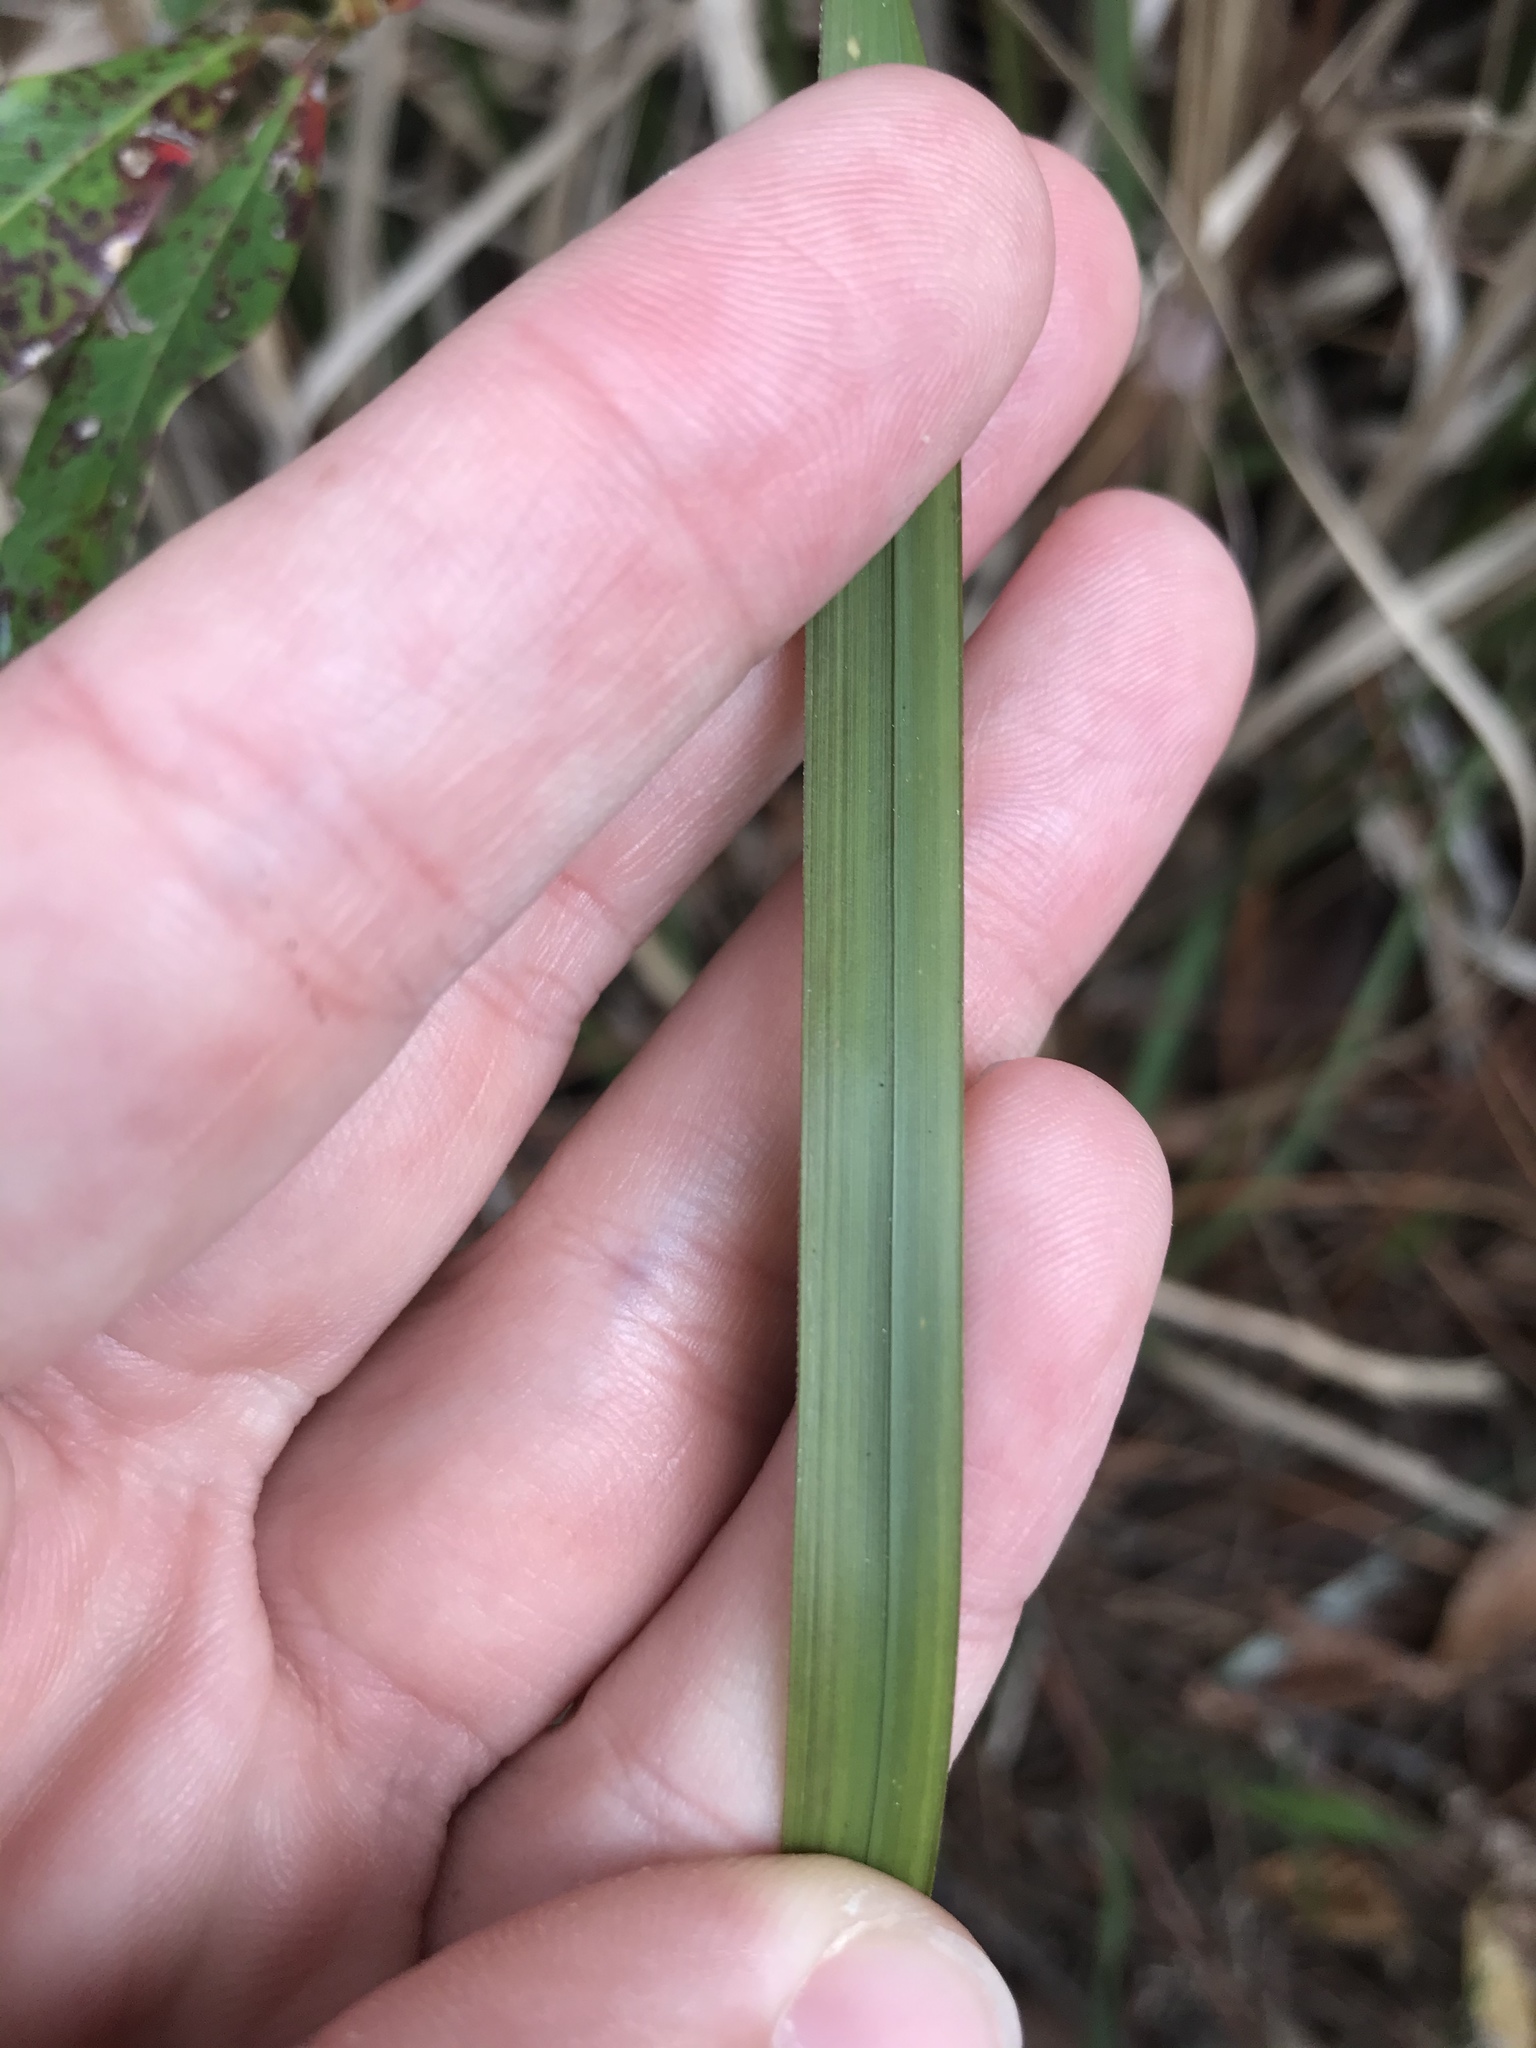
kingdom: Plantae
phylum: Tracheophyta
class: Liliopsida
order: Poales
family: Poaceae
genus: Imperata
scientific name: Imperata cylindrica
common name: Cogongrass
